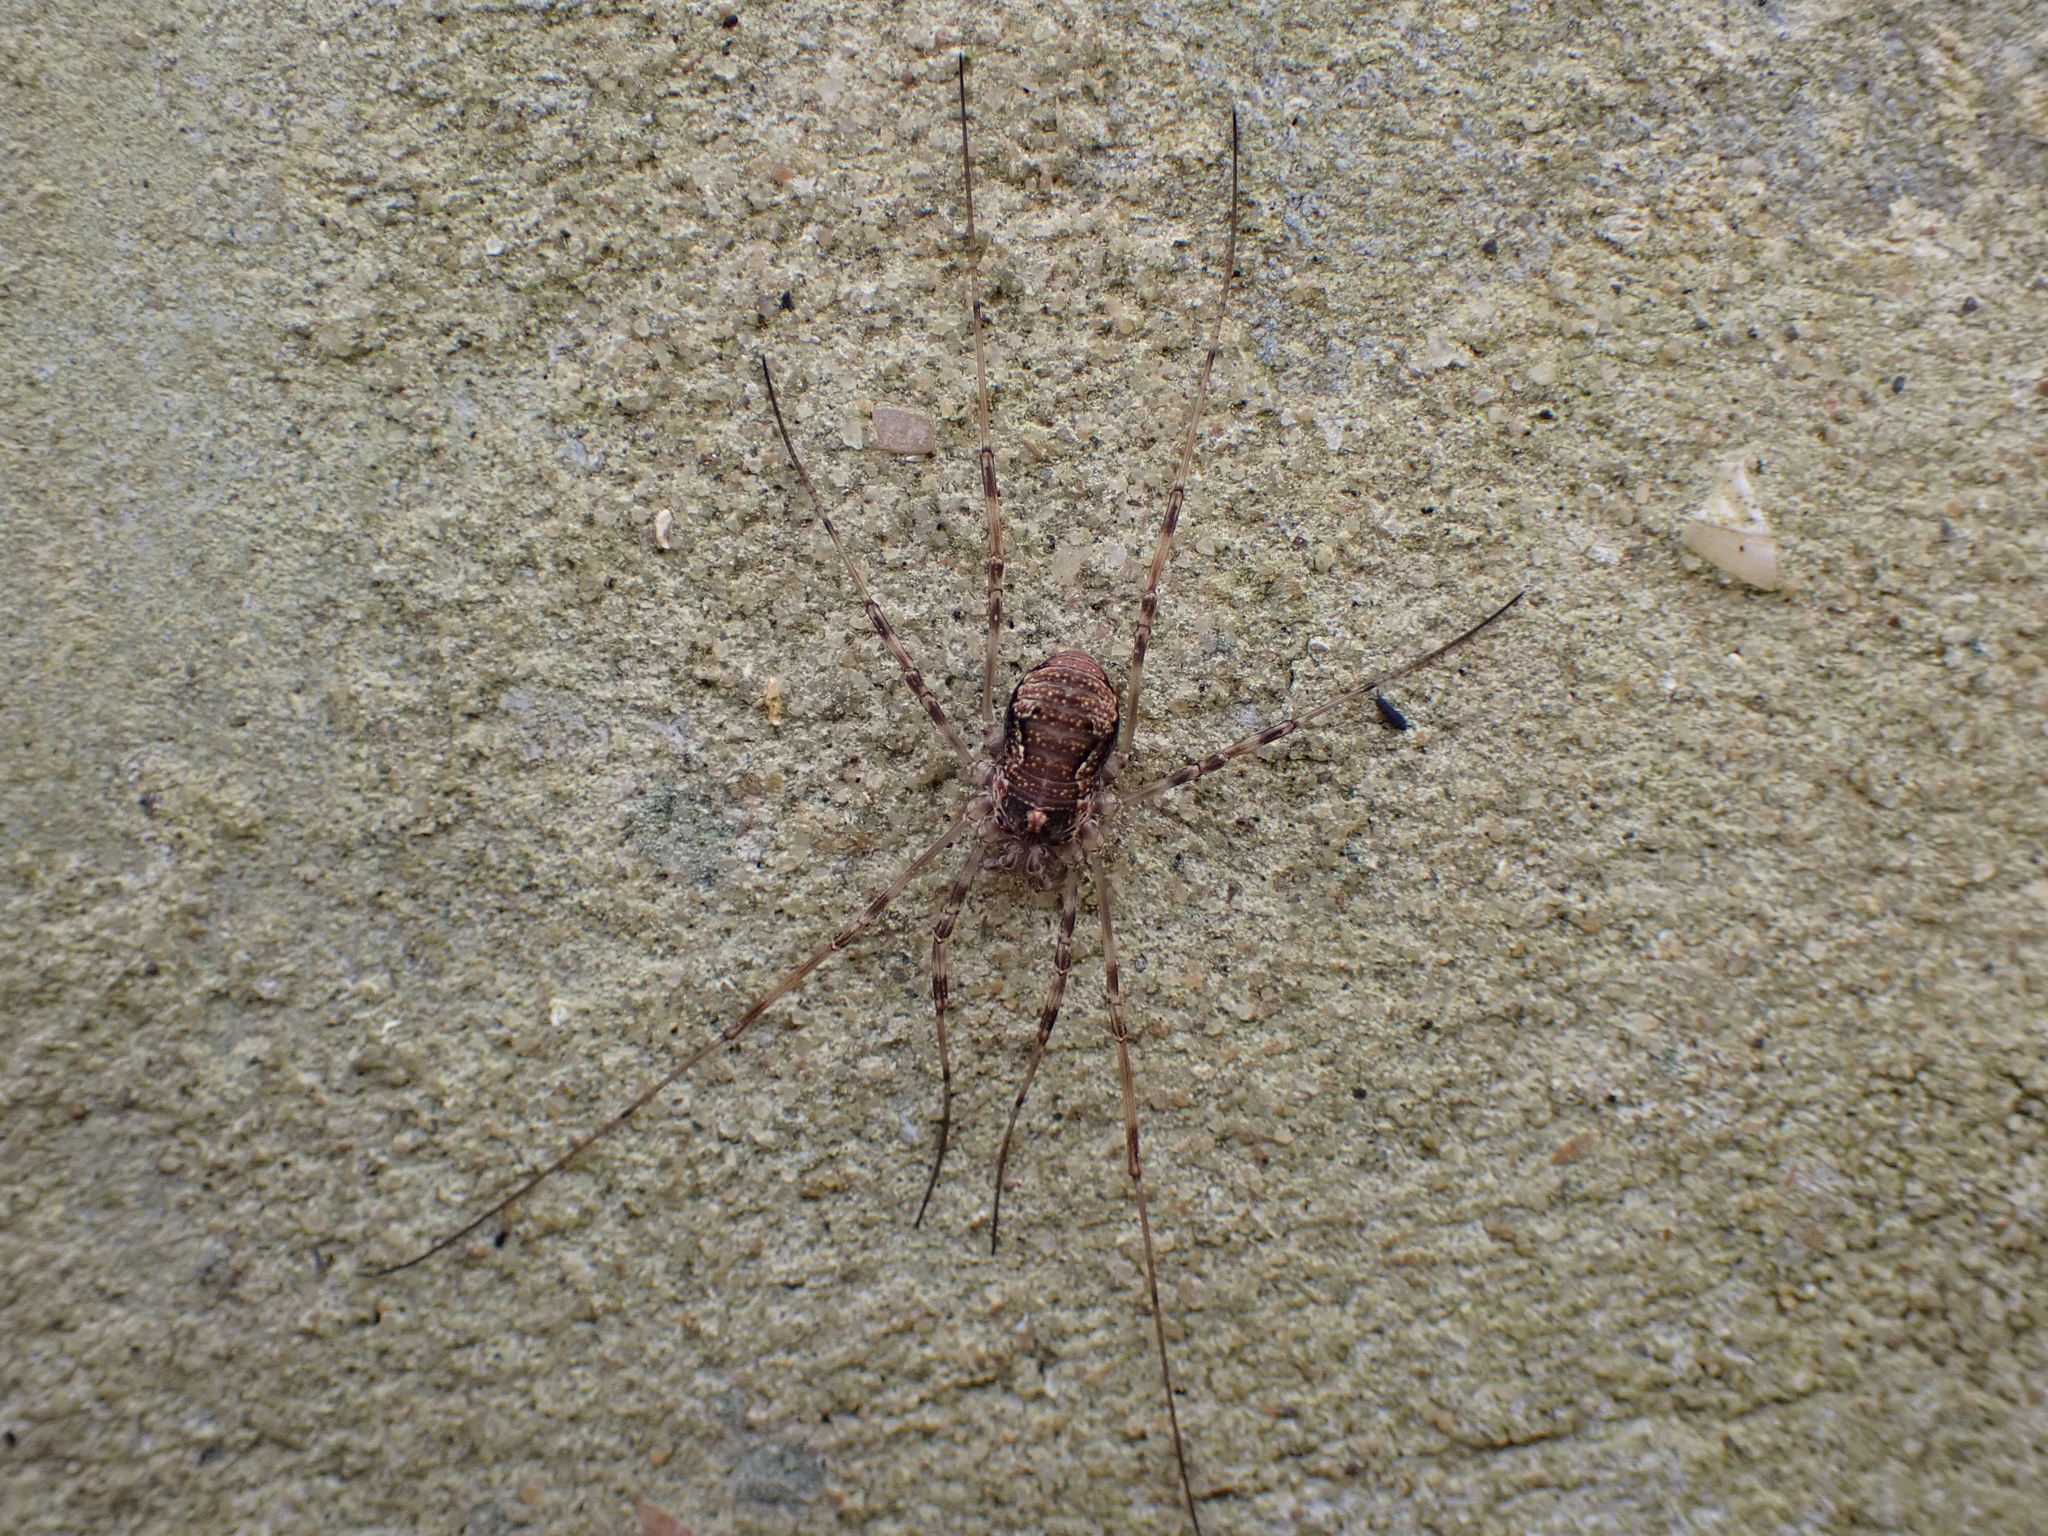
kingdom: Animalia
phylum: Arthropoda
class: Arachnida
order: Opiliones
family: Phalangiidae
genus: Dasylobus
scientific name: Dasylobus graniferus
